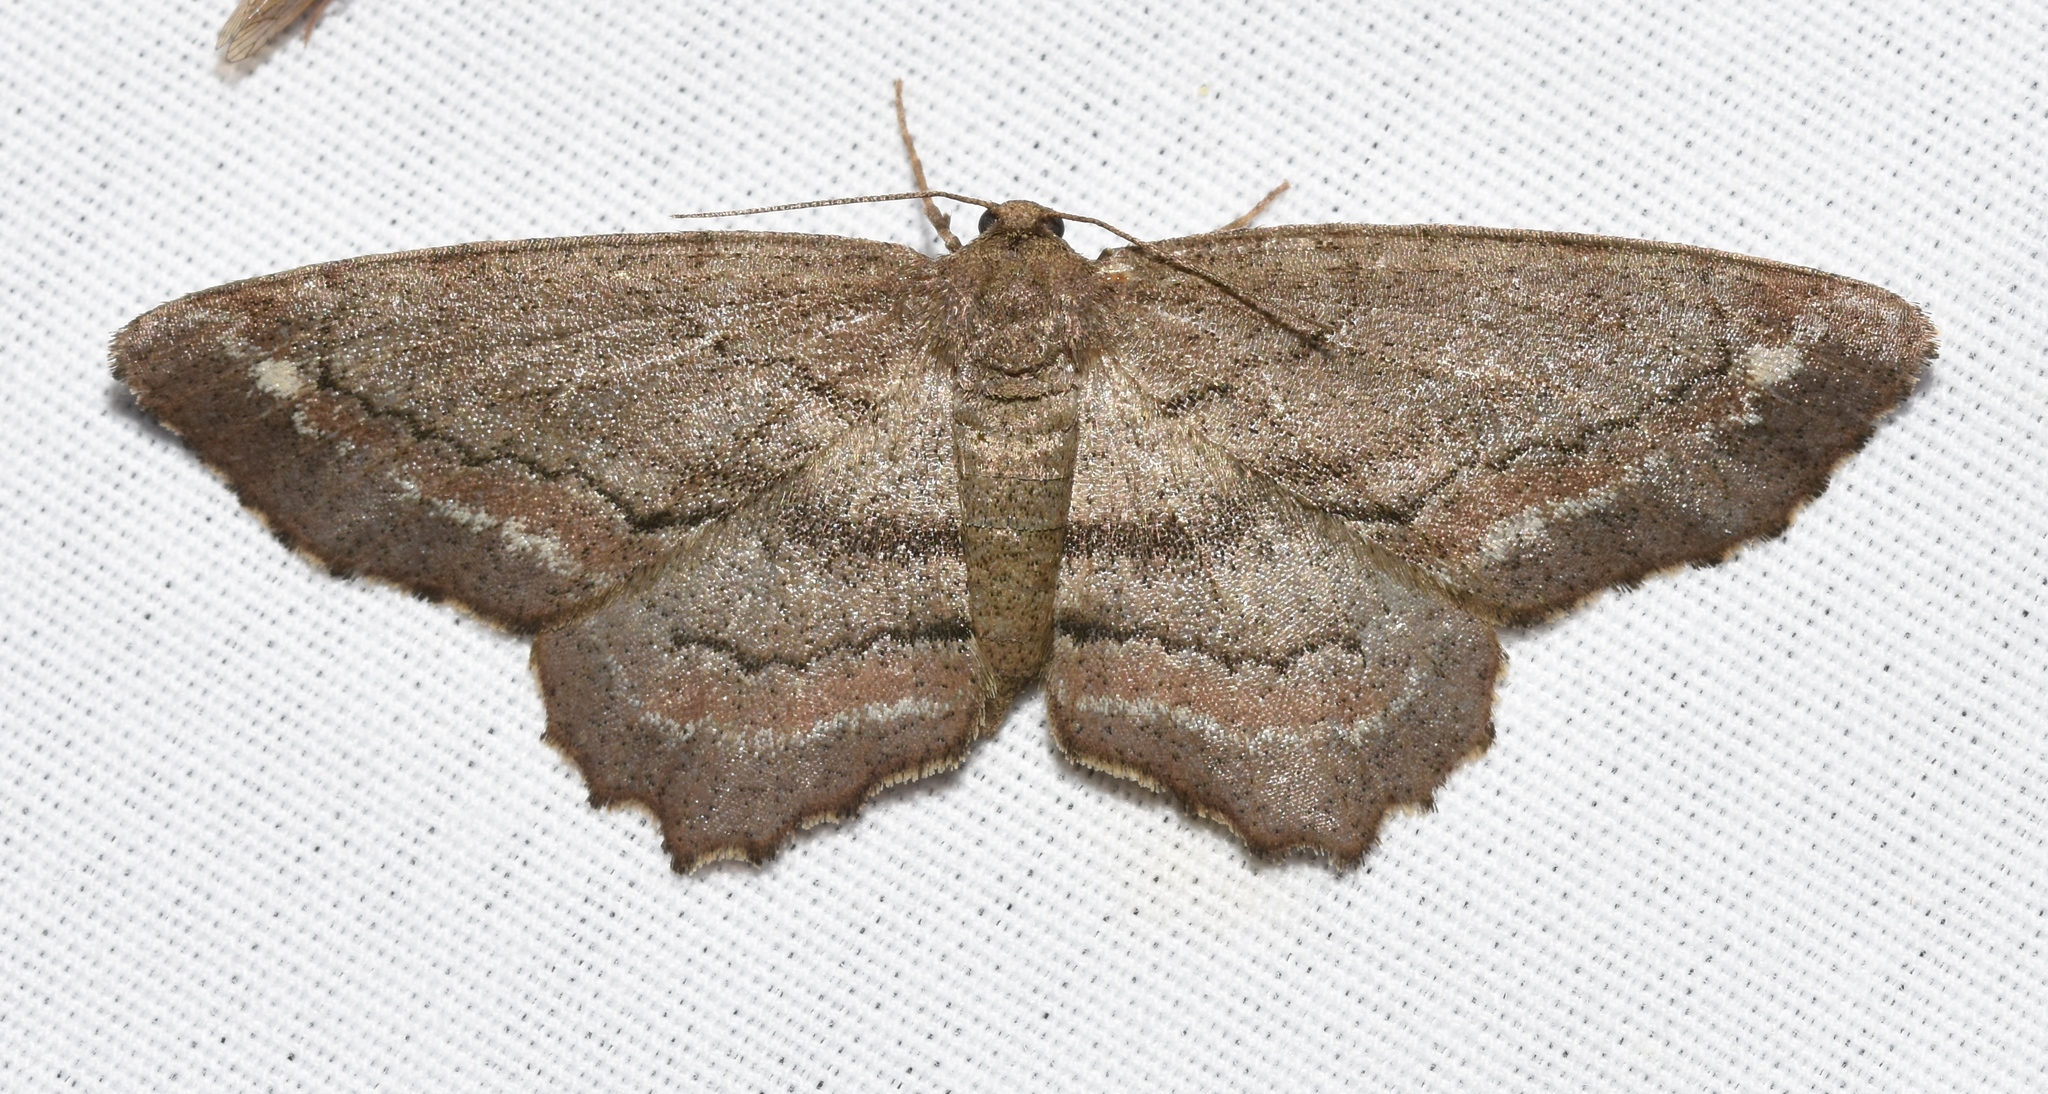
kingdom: Animalia
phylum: Arthropoda
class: Insecta
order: Lepidoptera
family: Geometridae
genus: Hypagyrtis
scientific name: Hypagyrtis brendae
